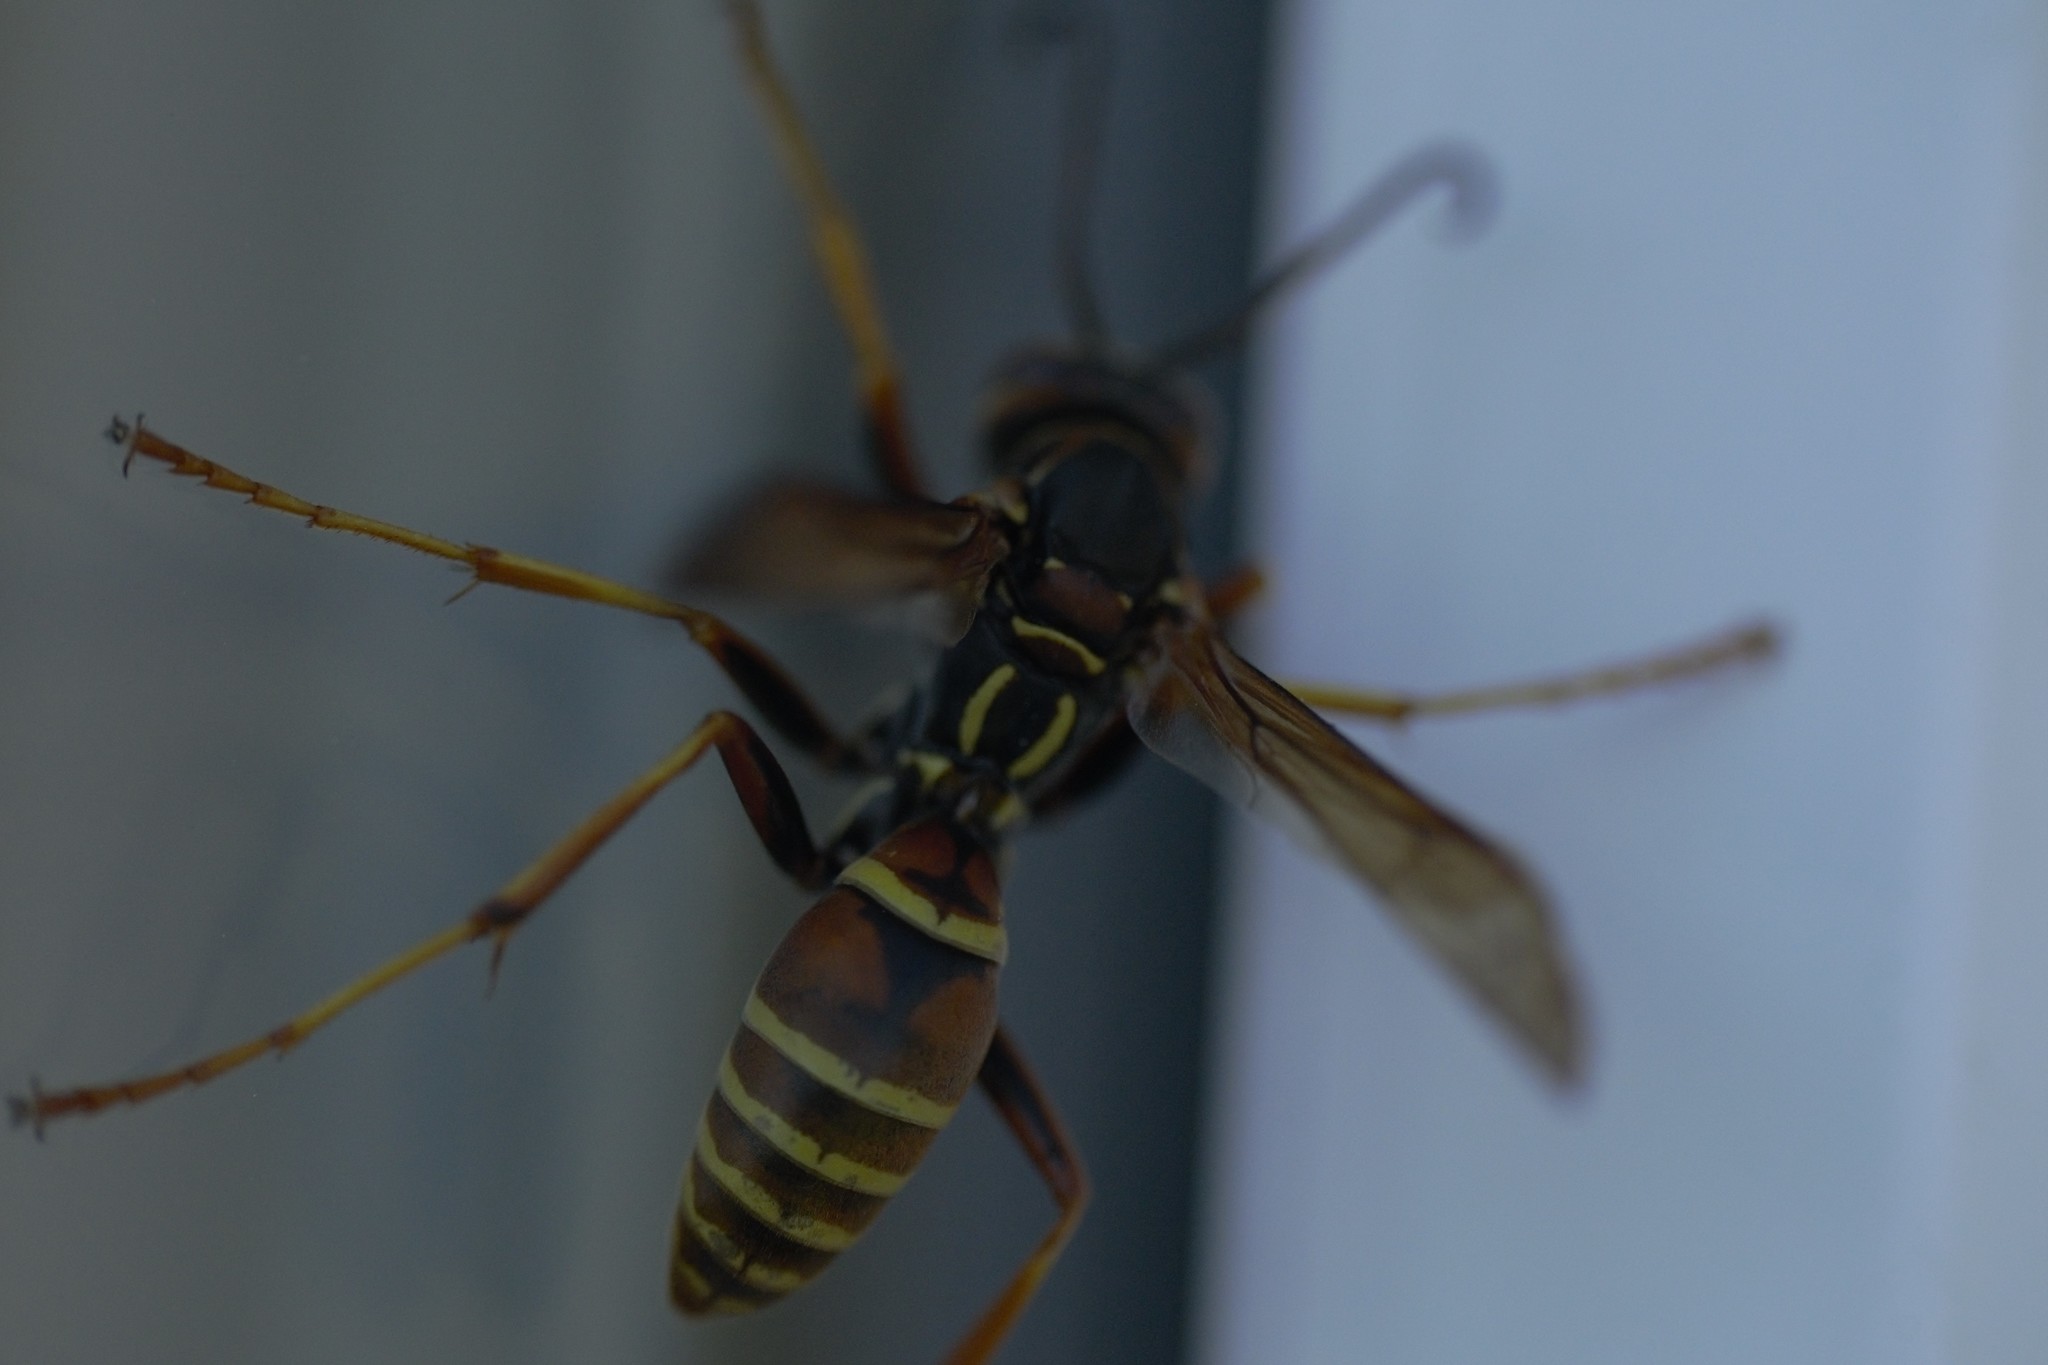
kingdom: Animalia
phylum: Arthropoda
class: Insecta
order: Hymenoptera
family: Eumenidae
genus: Polistes
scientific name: Polistes fuscatus
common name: Dark paper wasp
